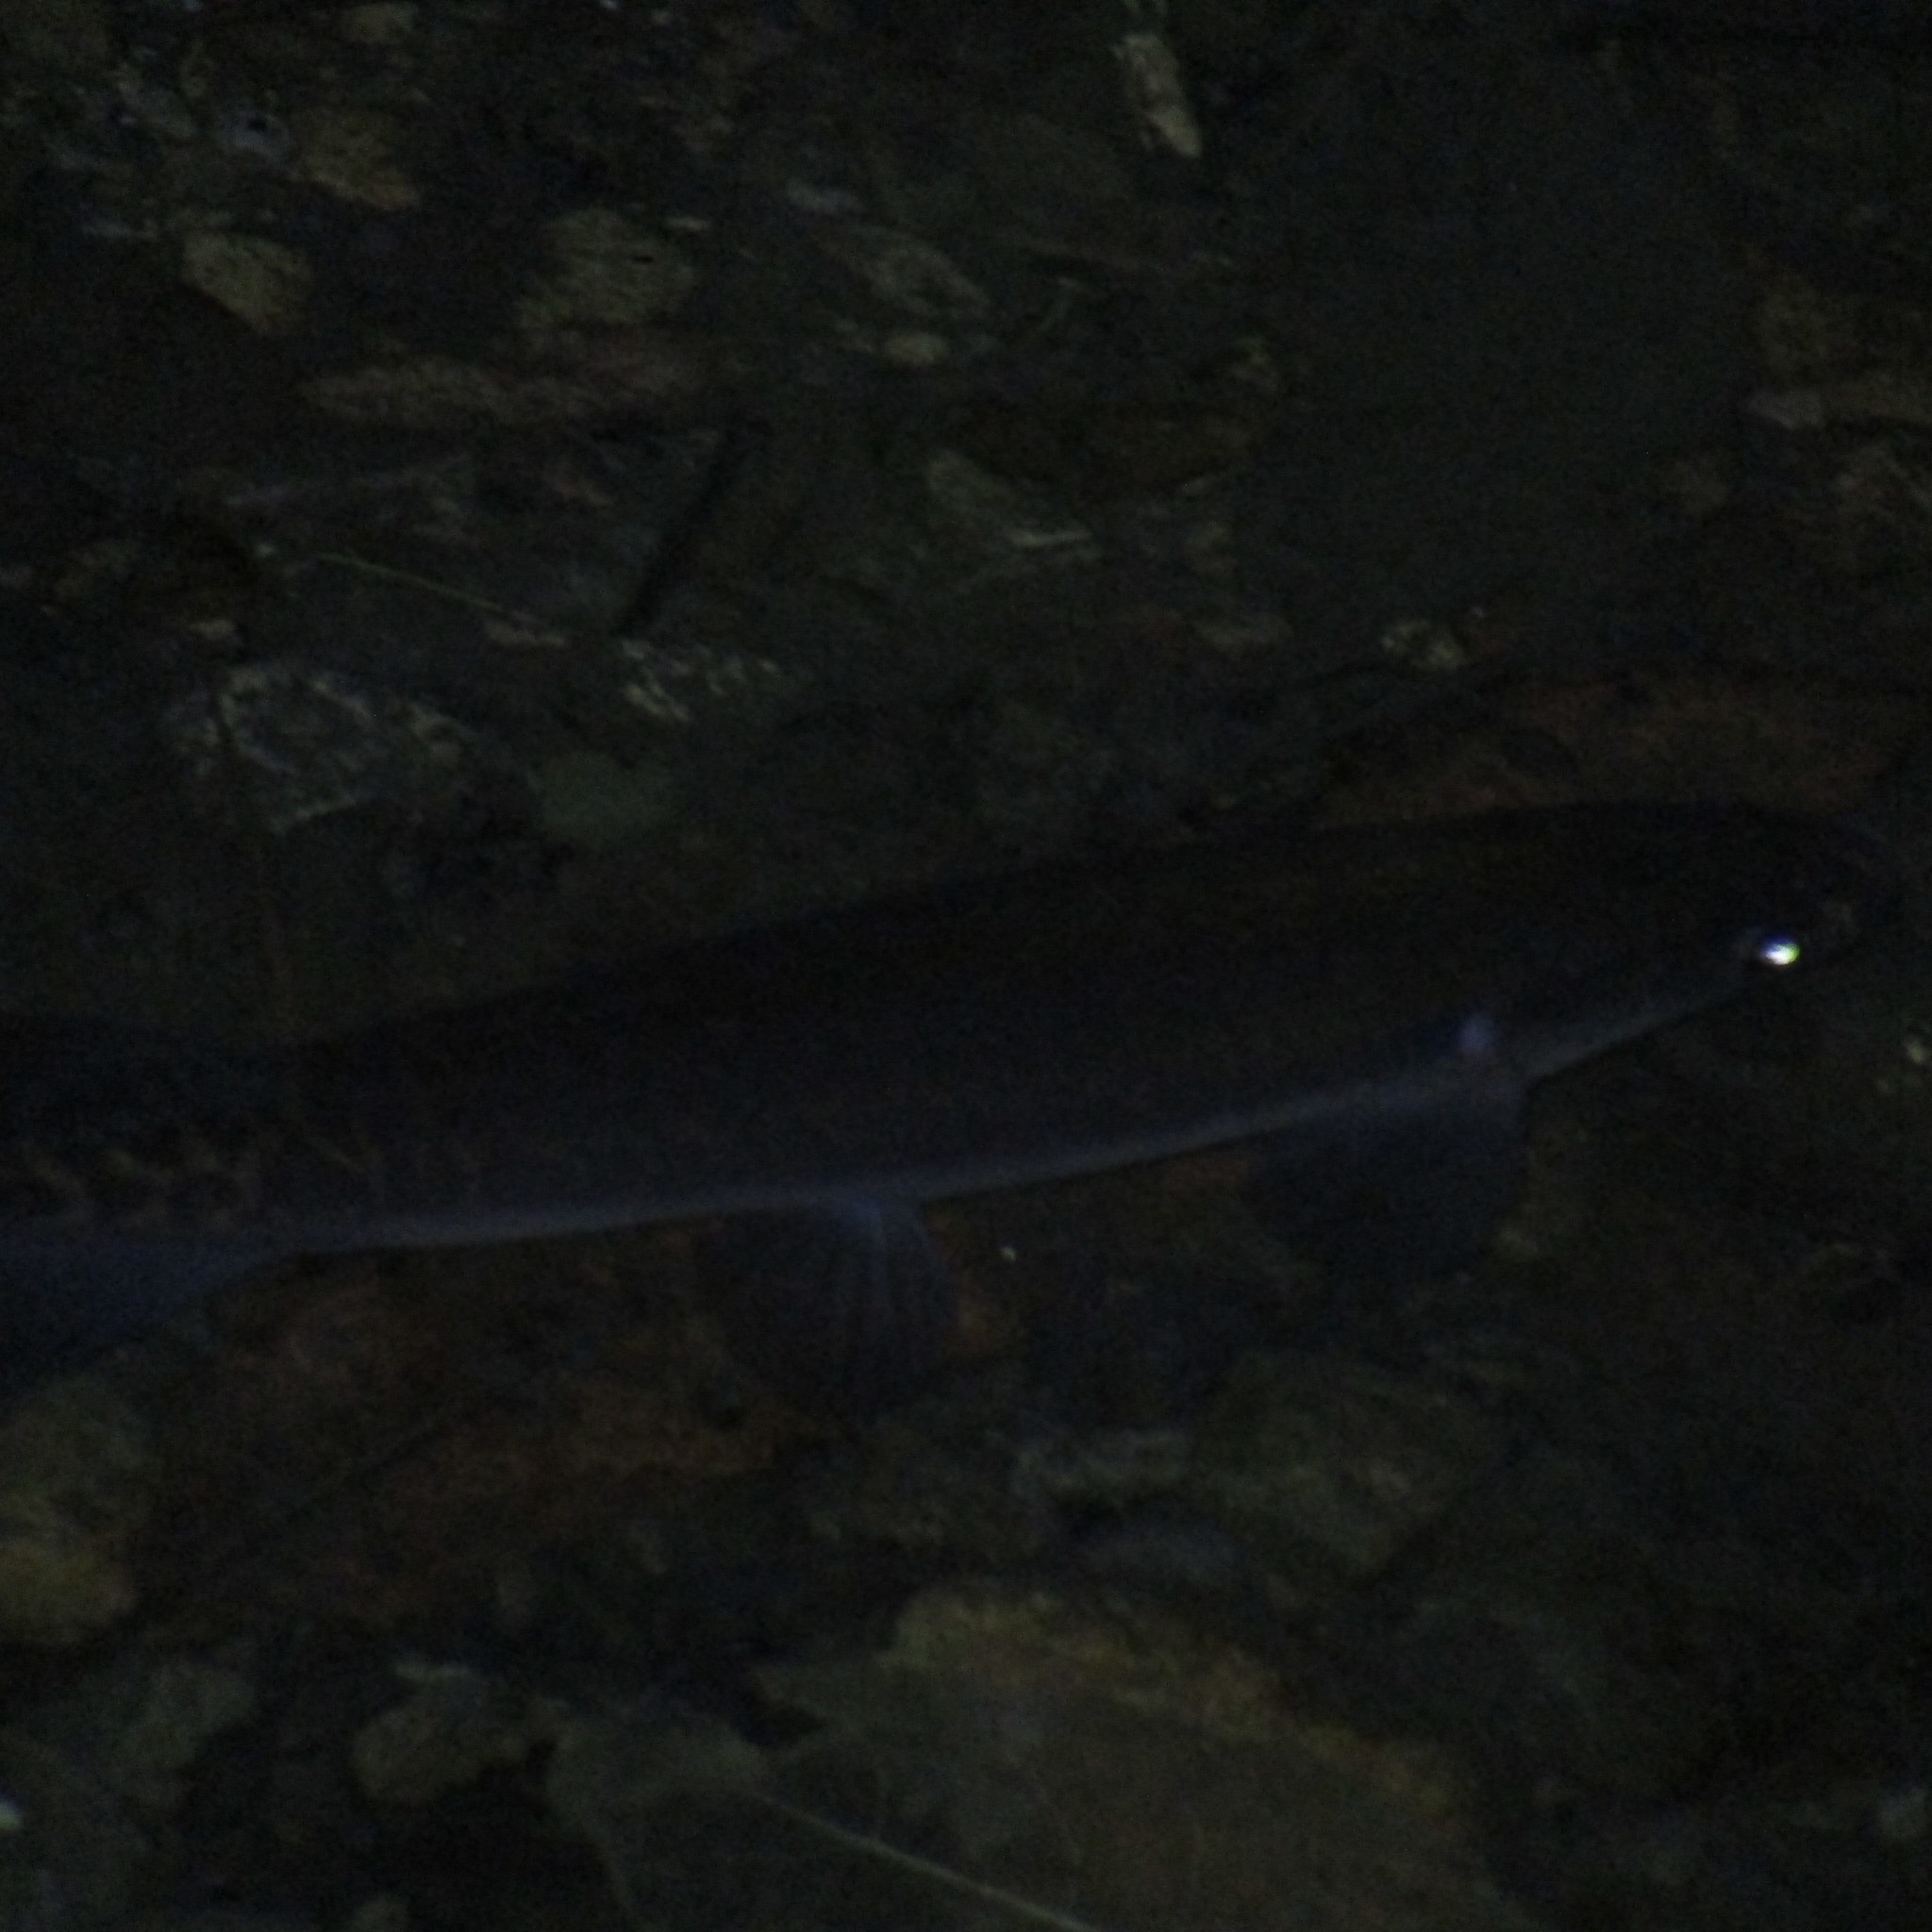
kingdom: Animalia
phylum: Chordata
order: Osmeriformes
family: Galaxiidae
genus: Galaxias
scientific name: Galaxias fasciatus
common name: Banded kokopu
